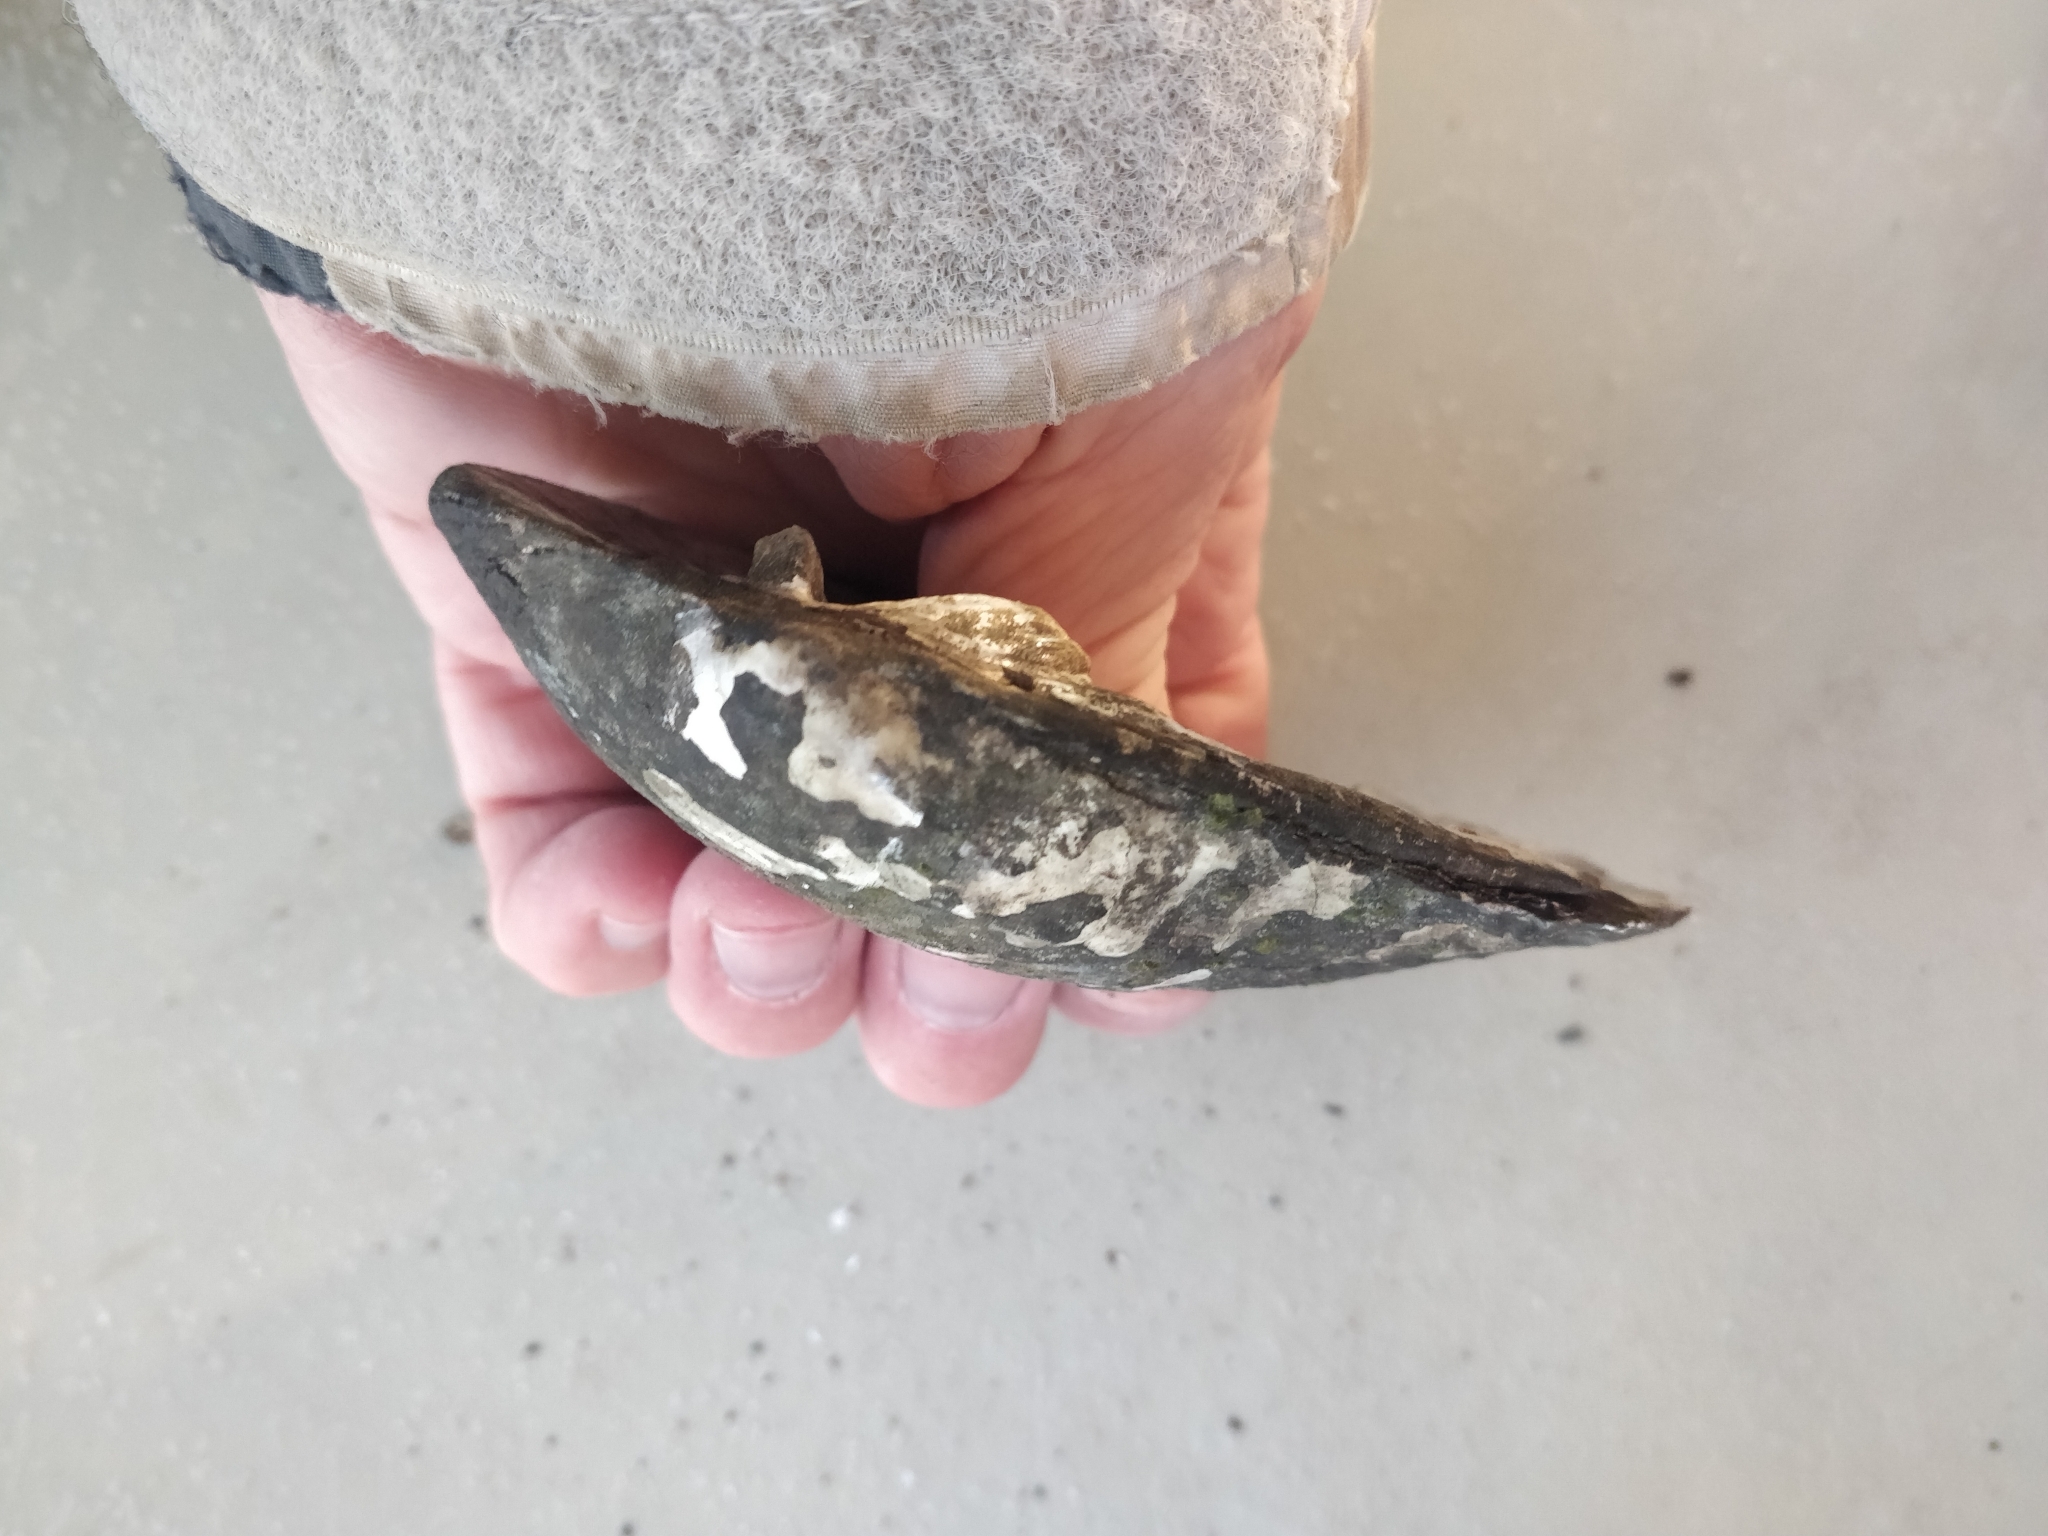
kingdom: Animalia
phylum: Mollusca
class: Bivalvia
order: Unionida
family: Unionidae
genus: Amblema
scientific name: Amblema plicata
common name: Threeridge
